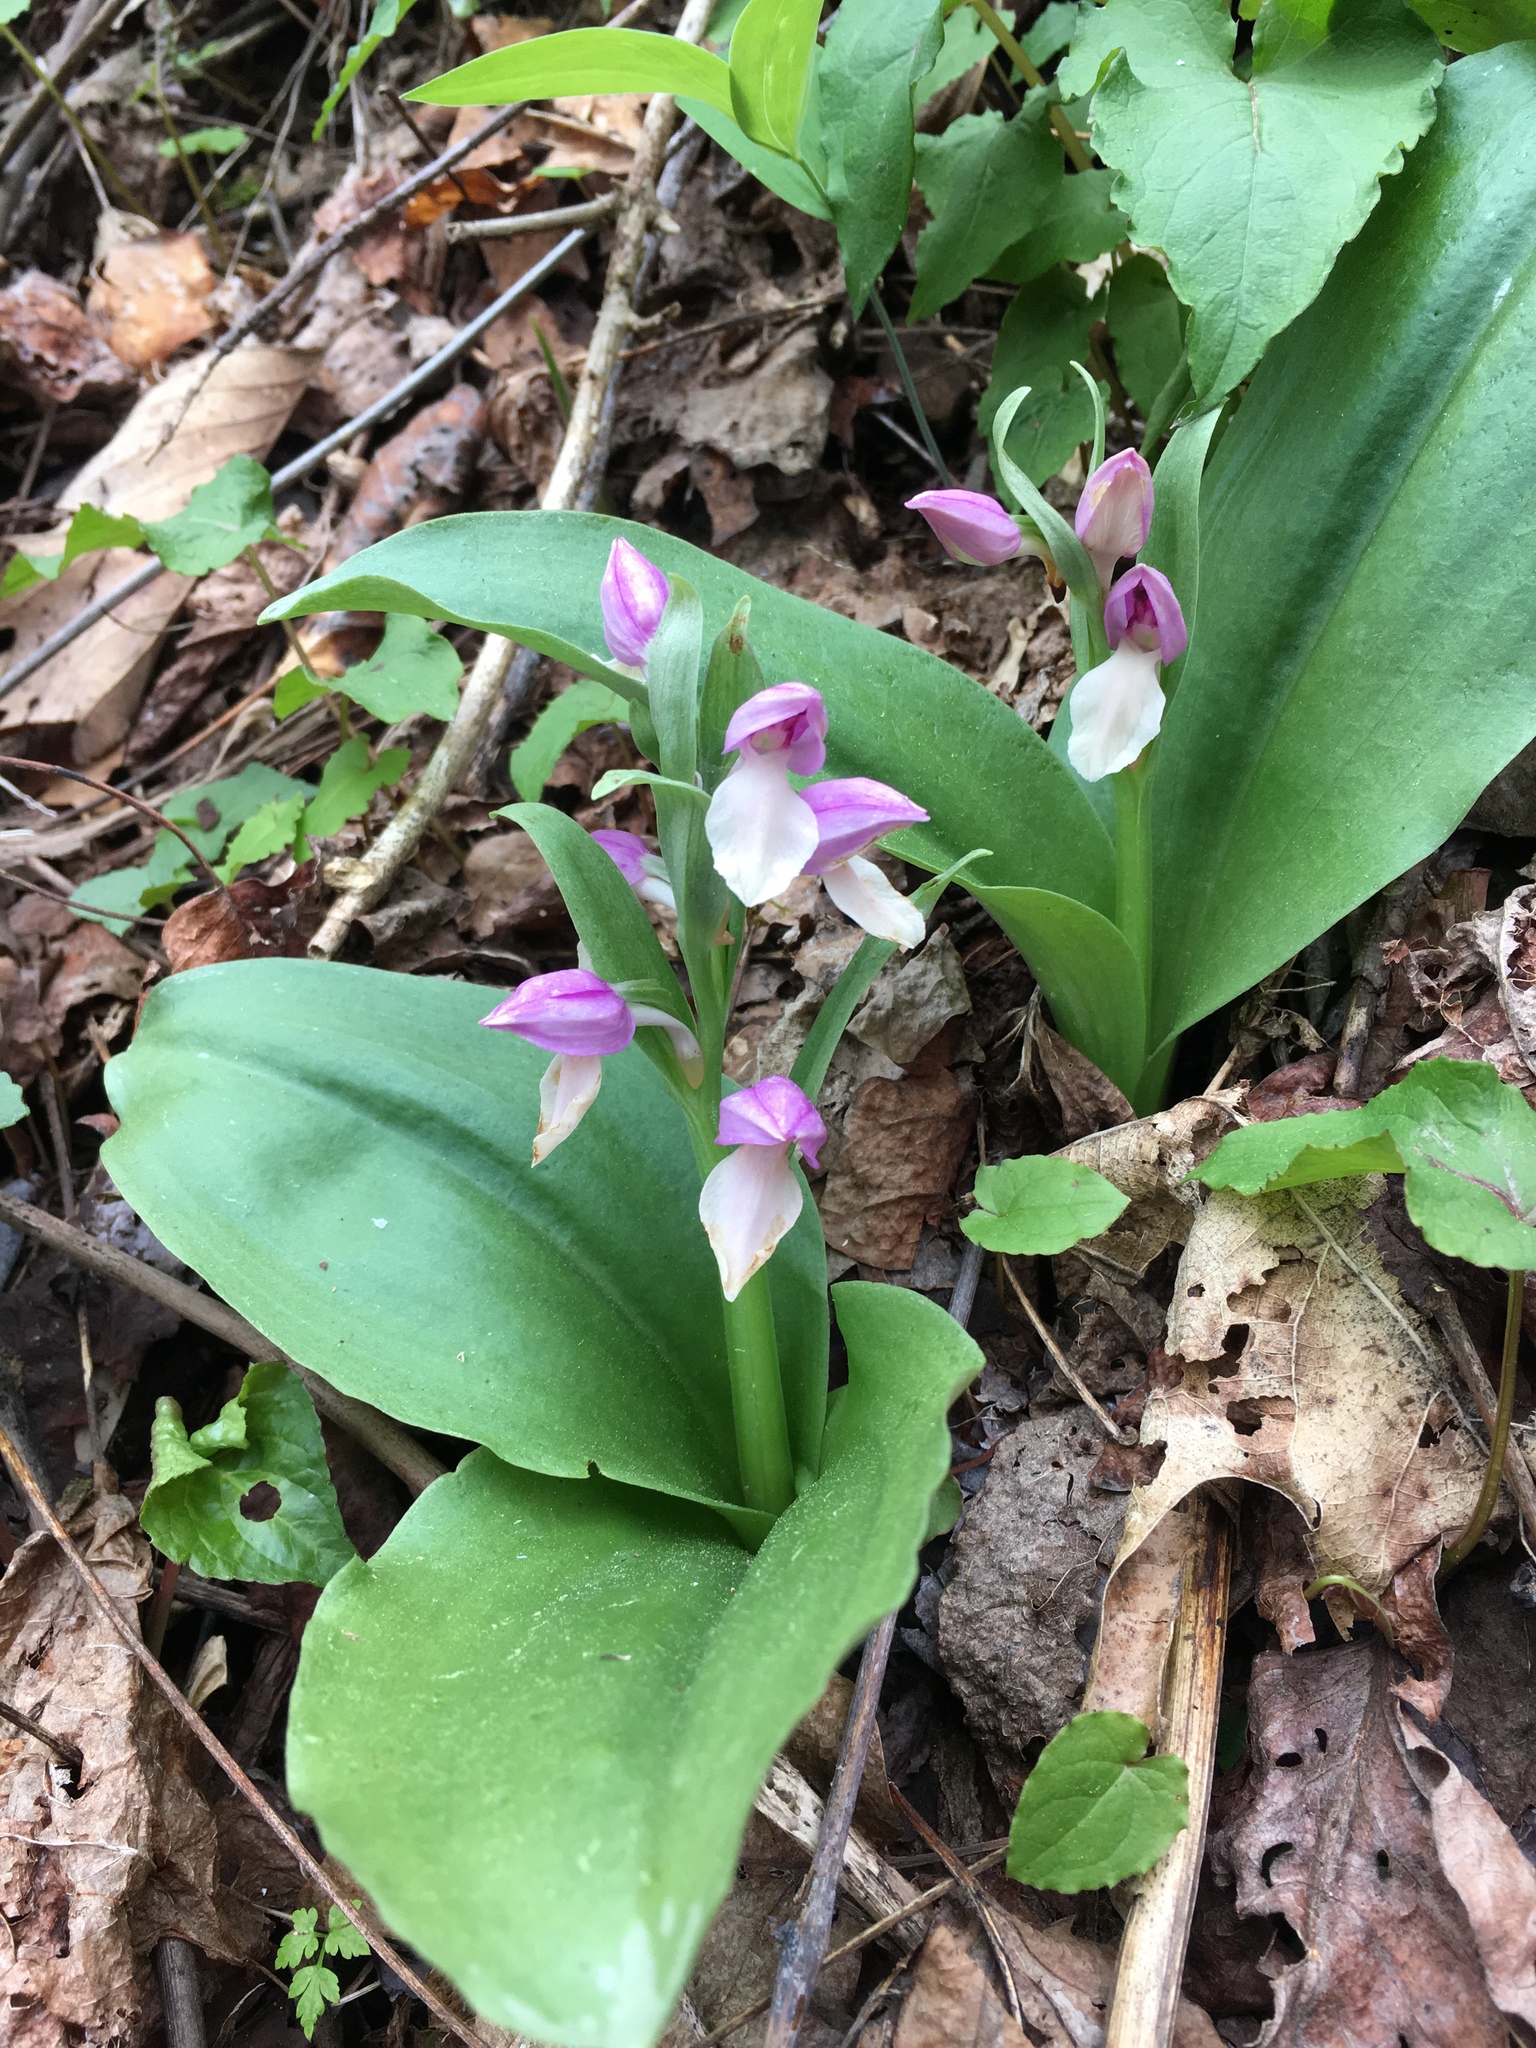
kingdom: Plantae
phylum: Tracheophyta
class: Liliopsida
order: Asparagales
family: Orchidaceae
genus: Galearis
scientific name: Galearis spectabilis
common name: Purple-hooded orchis
